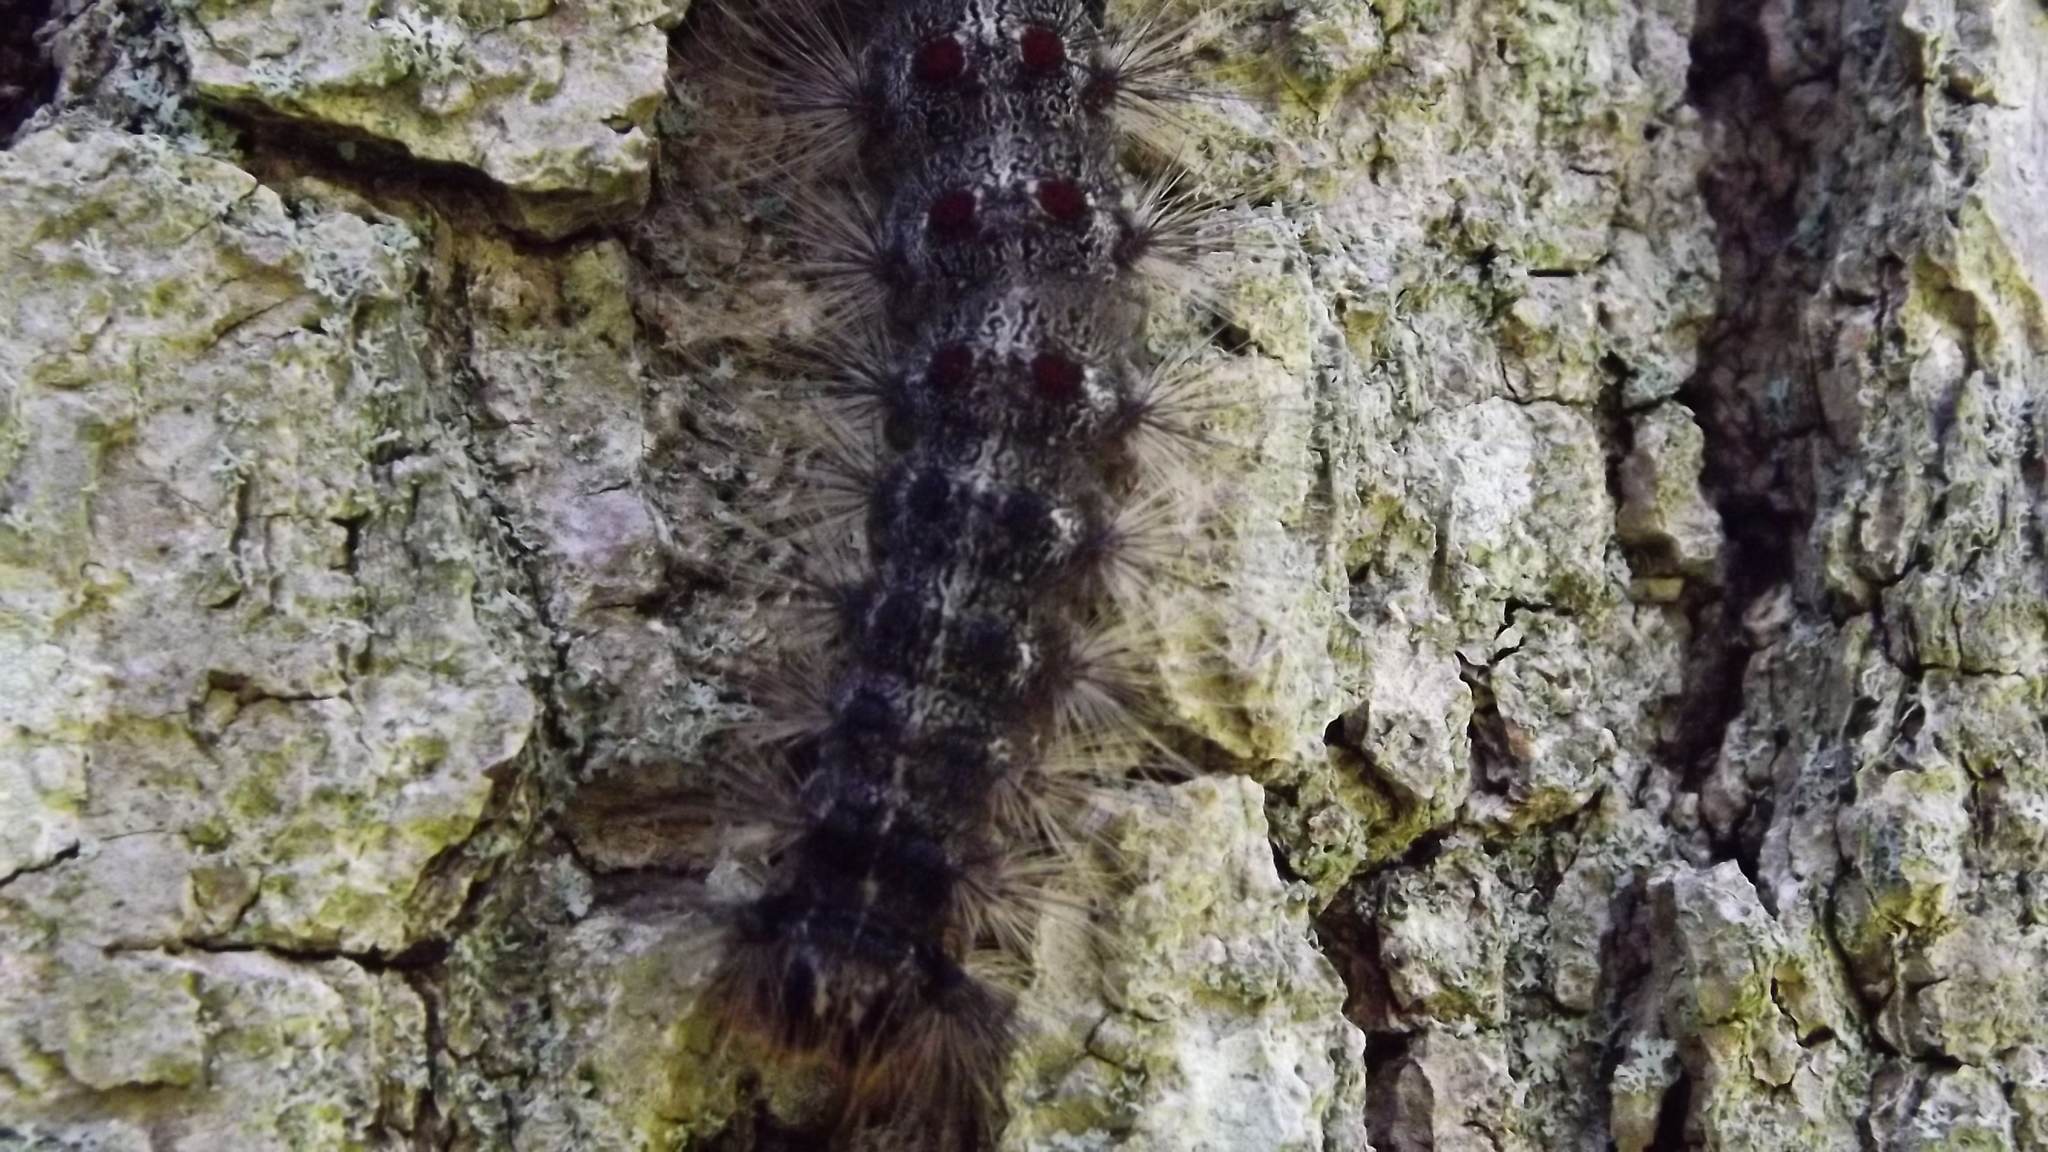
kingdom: Animalia
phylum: Arthropoda
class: Insecta
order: Lepidoptera
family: Erebidae
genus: Lymantria
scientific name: Lymantria dispar
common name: Gypsy moth
